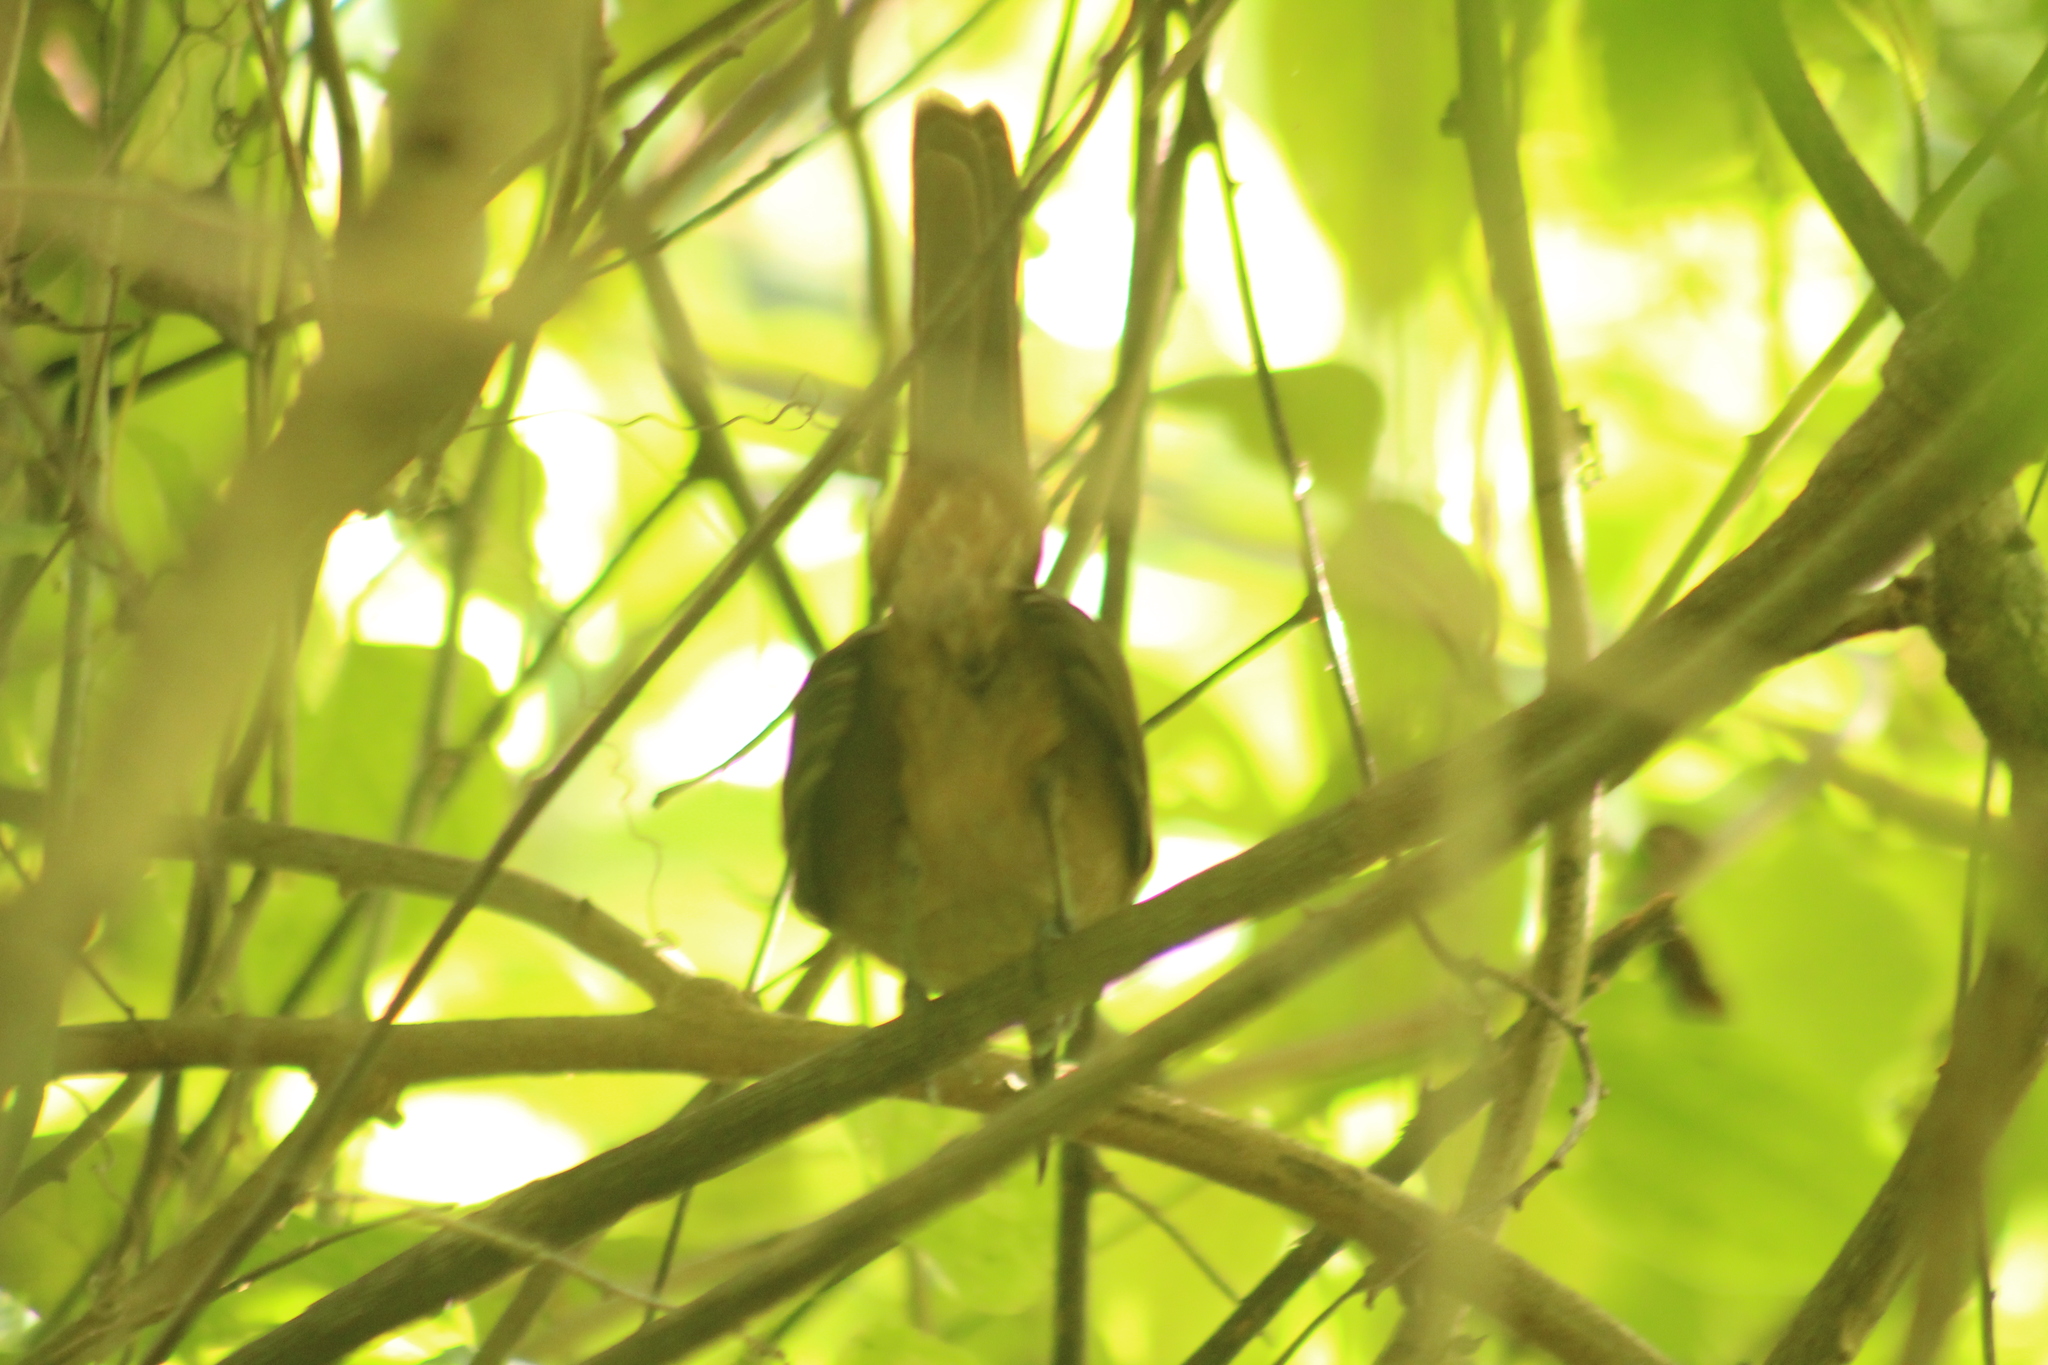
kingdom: Animalia
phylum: Chordata
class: Aves
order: Passeriformes
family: Mimidae
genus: Cinclocerthia
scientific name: Cinclocerthia ruficauda
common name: Brown trembler
